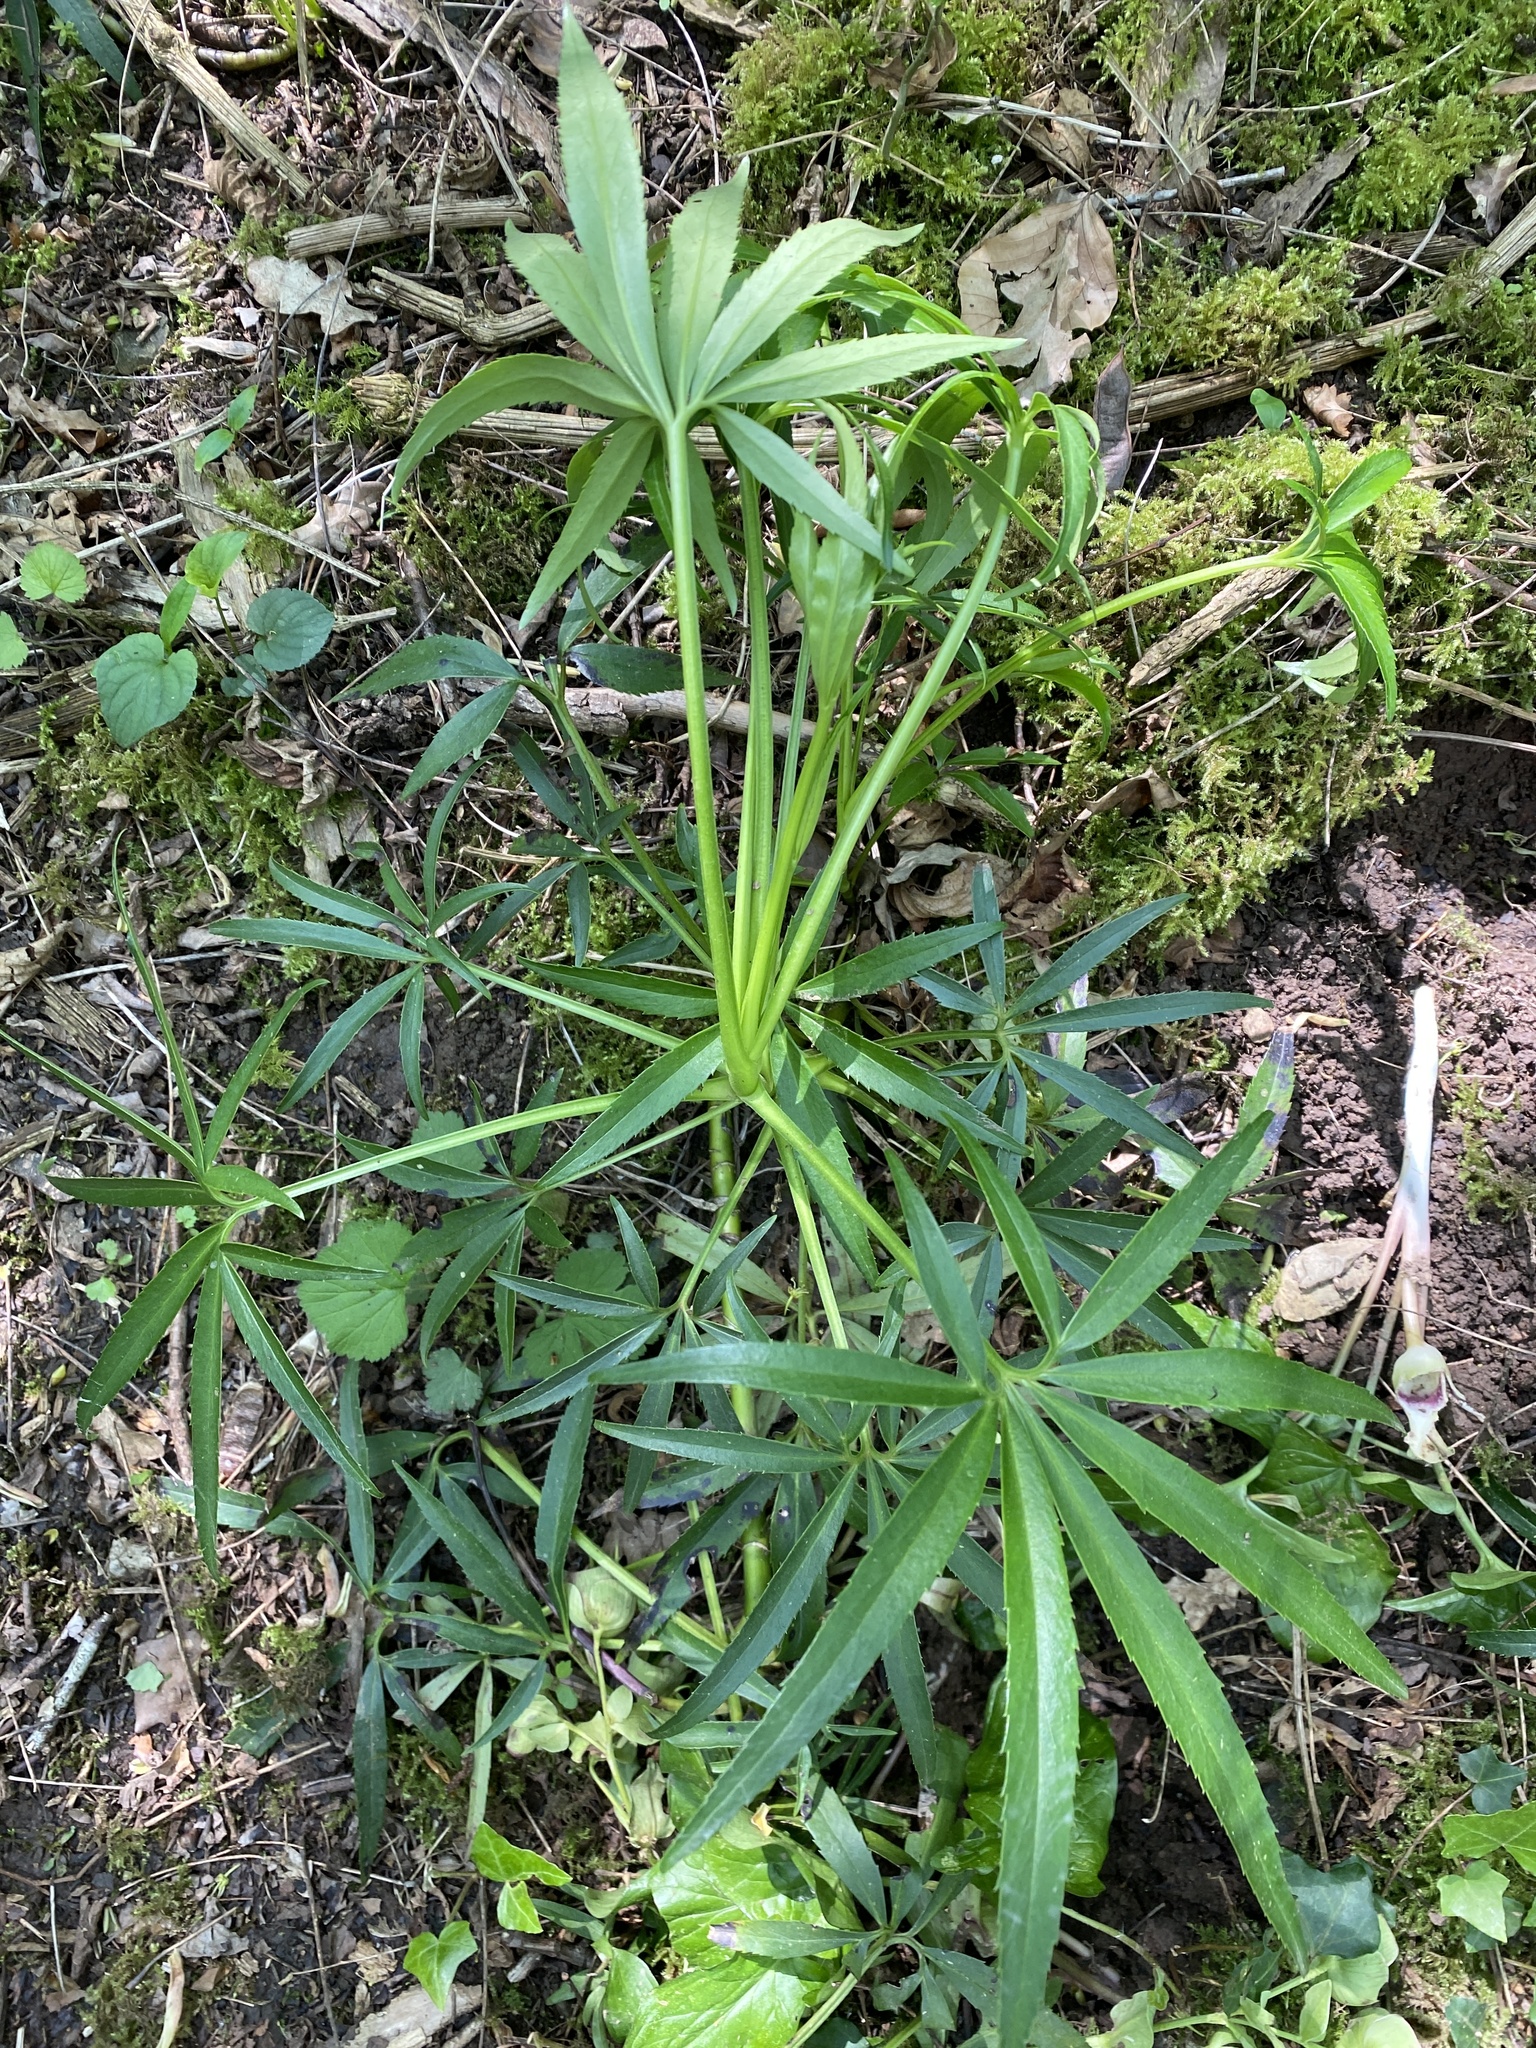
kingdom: Plantae
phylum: Tracheophyta
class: Magnoliopsida
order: Ranunculales
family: Ranunculaceae
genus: Helleborus
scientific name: Helleborus foetidus
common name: Stinking hellebore
